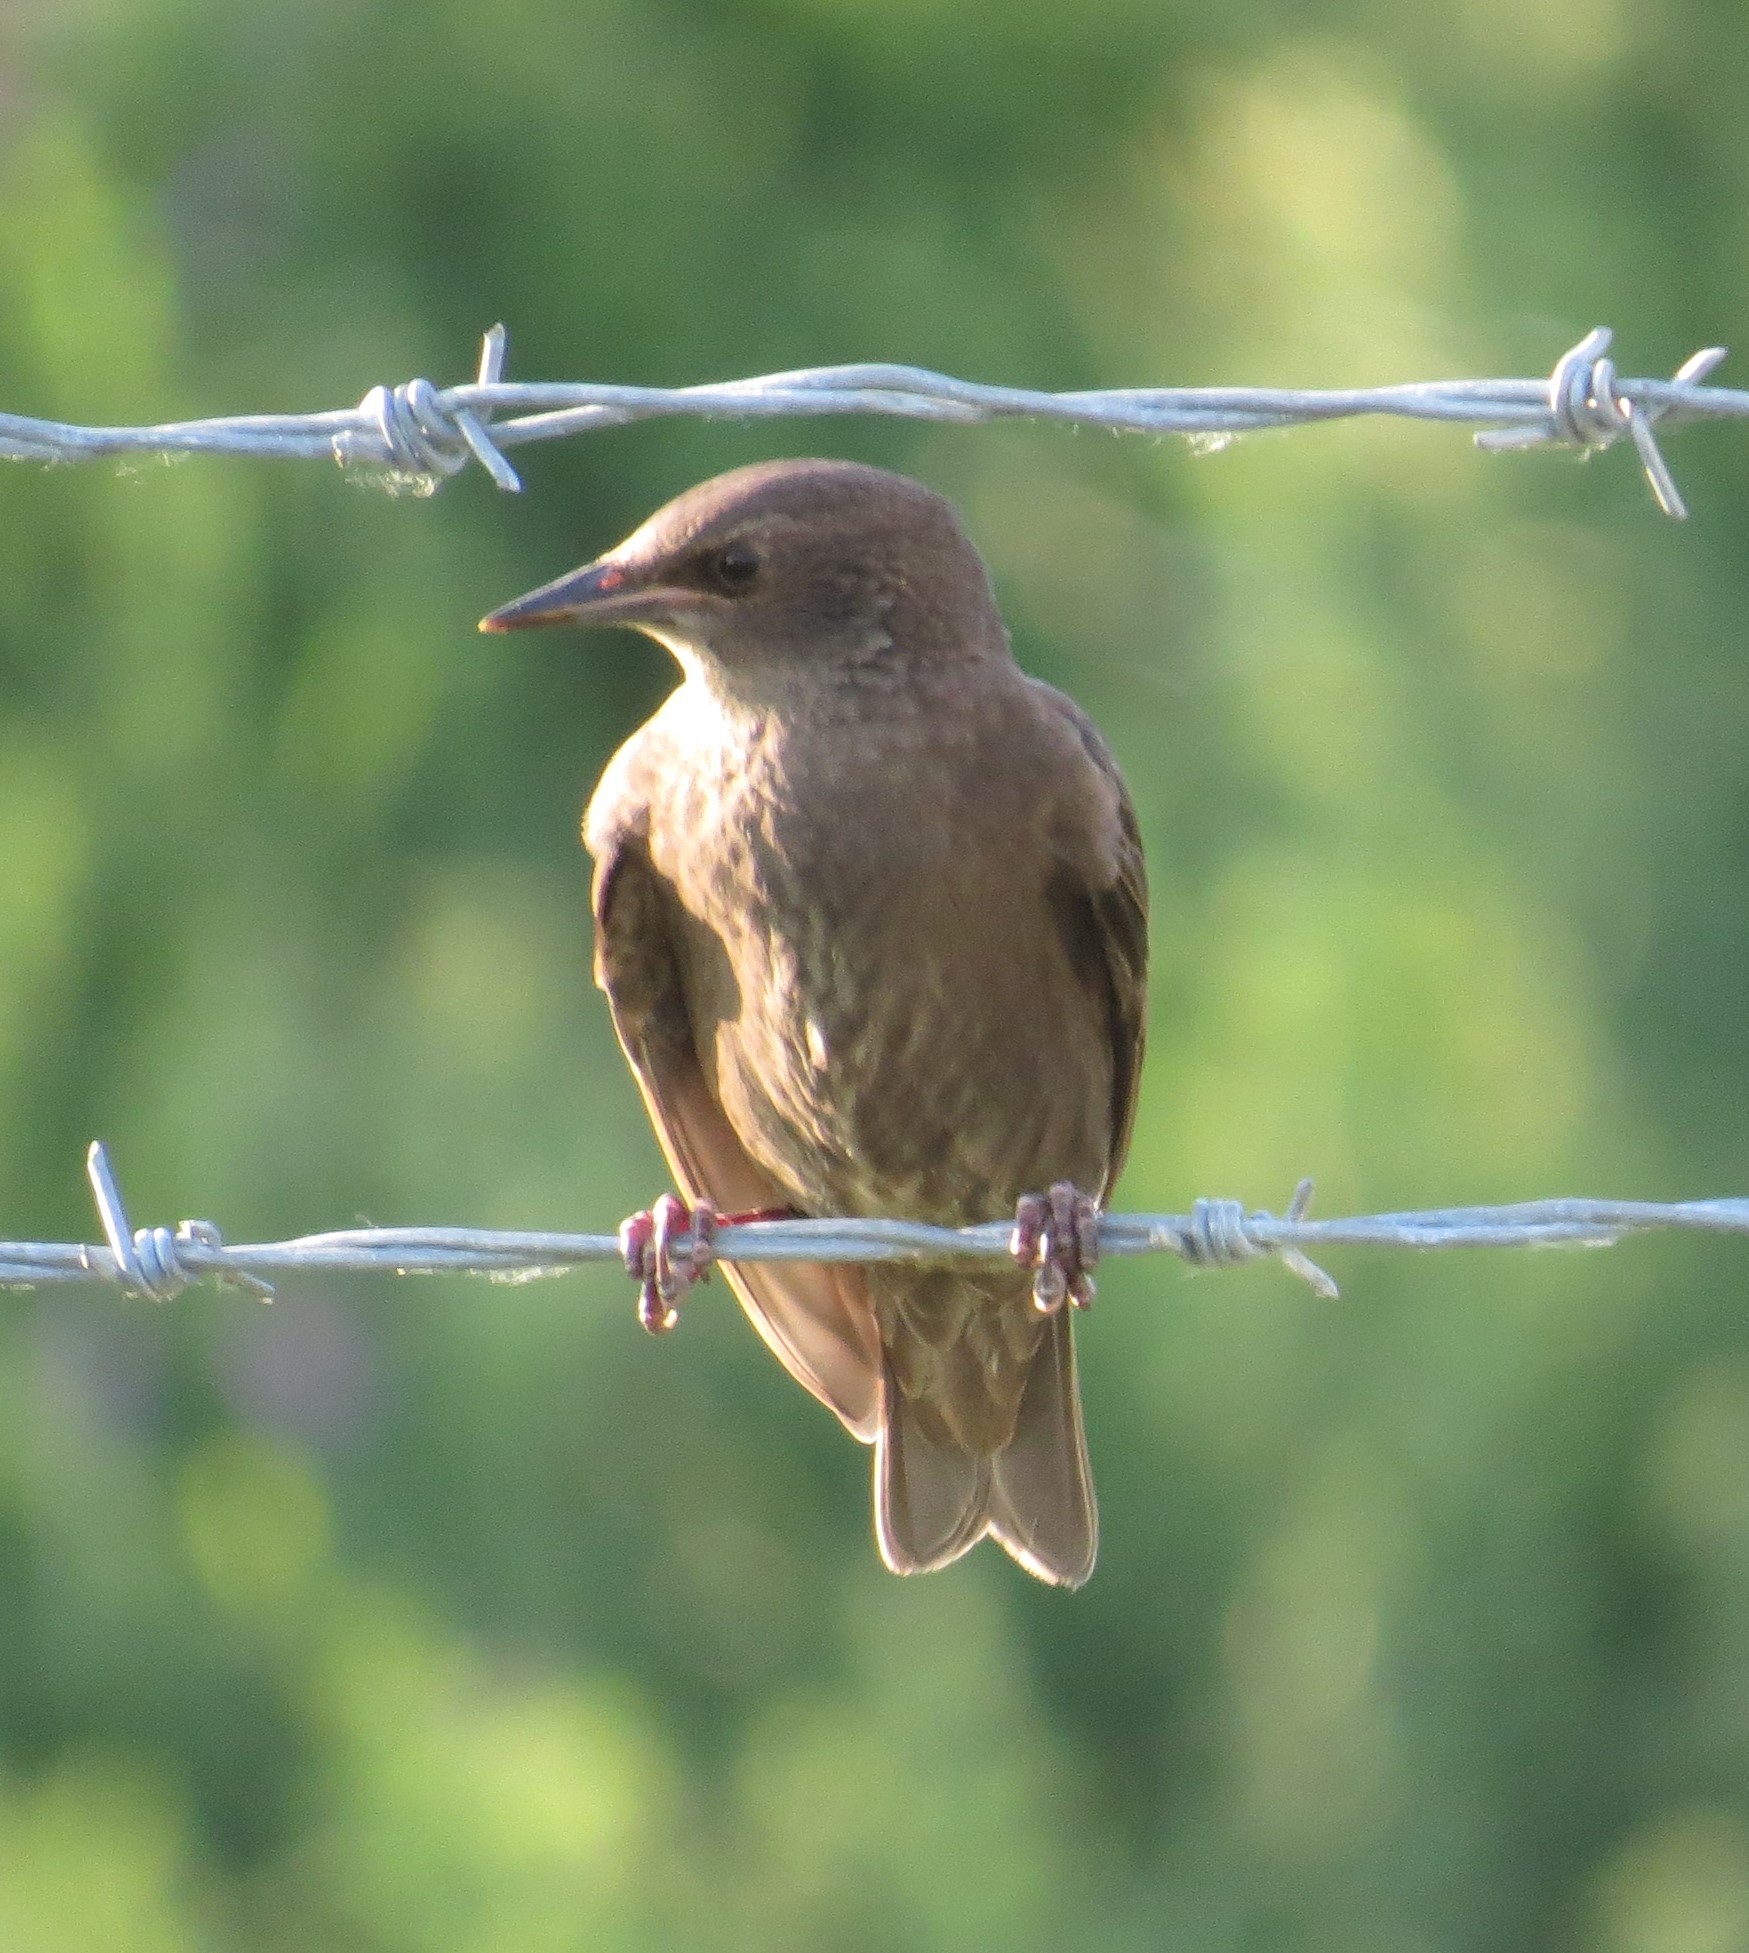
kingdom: Animalia
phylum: Chordata
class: Aves
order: Passeriformes
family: Sturnidae
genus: Sturnus
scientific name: Sturnus vulgaris
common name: Common starling
